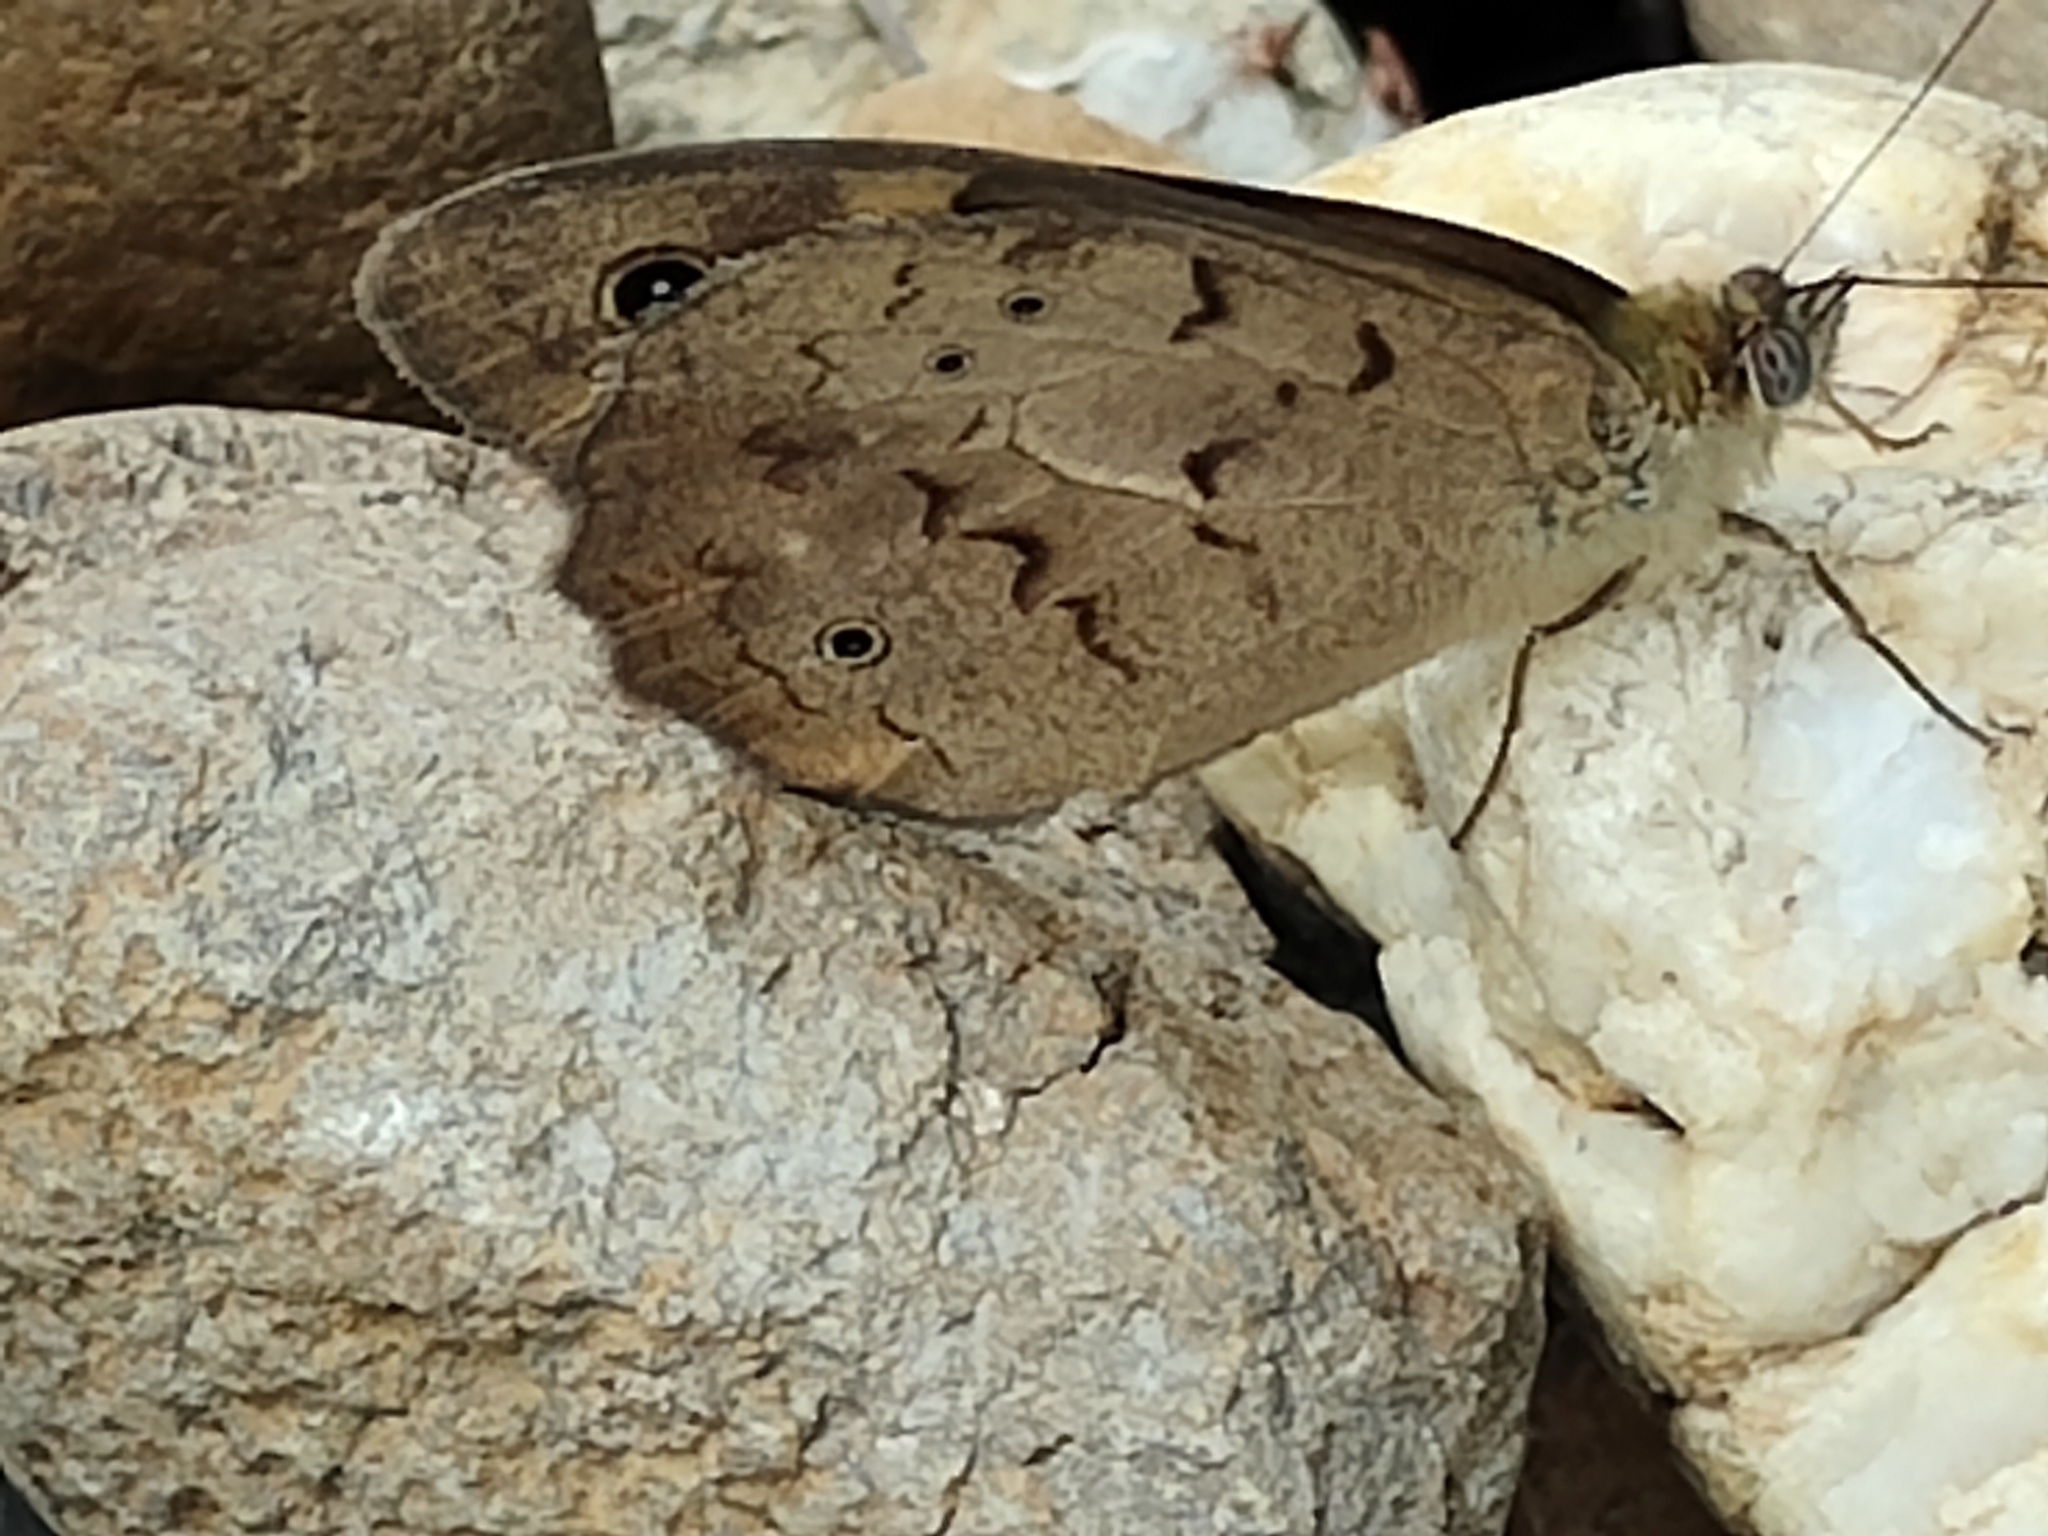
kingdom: Animalia
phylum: Arthropoda
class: Insecta
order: Lepidoptera
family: Nymphalidae
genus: Heteronympha
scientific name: Heteronympha merope
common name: Common brown
